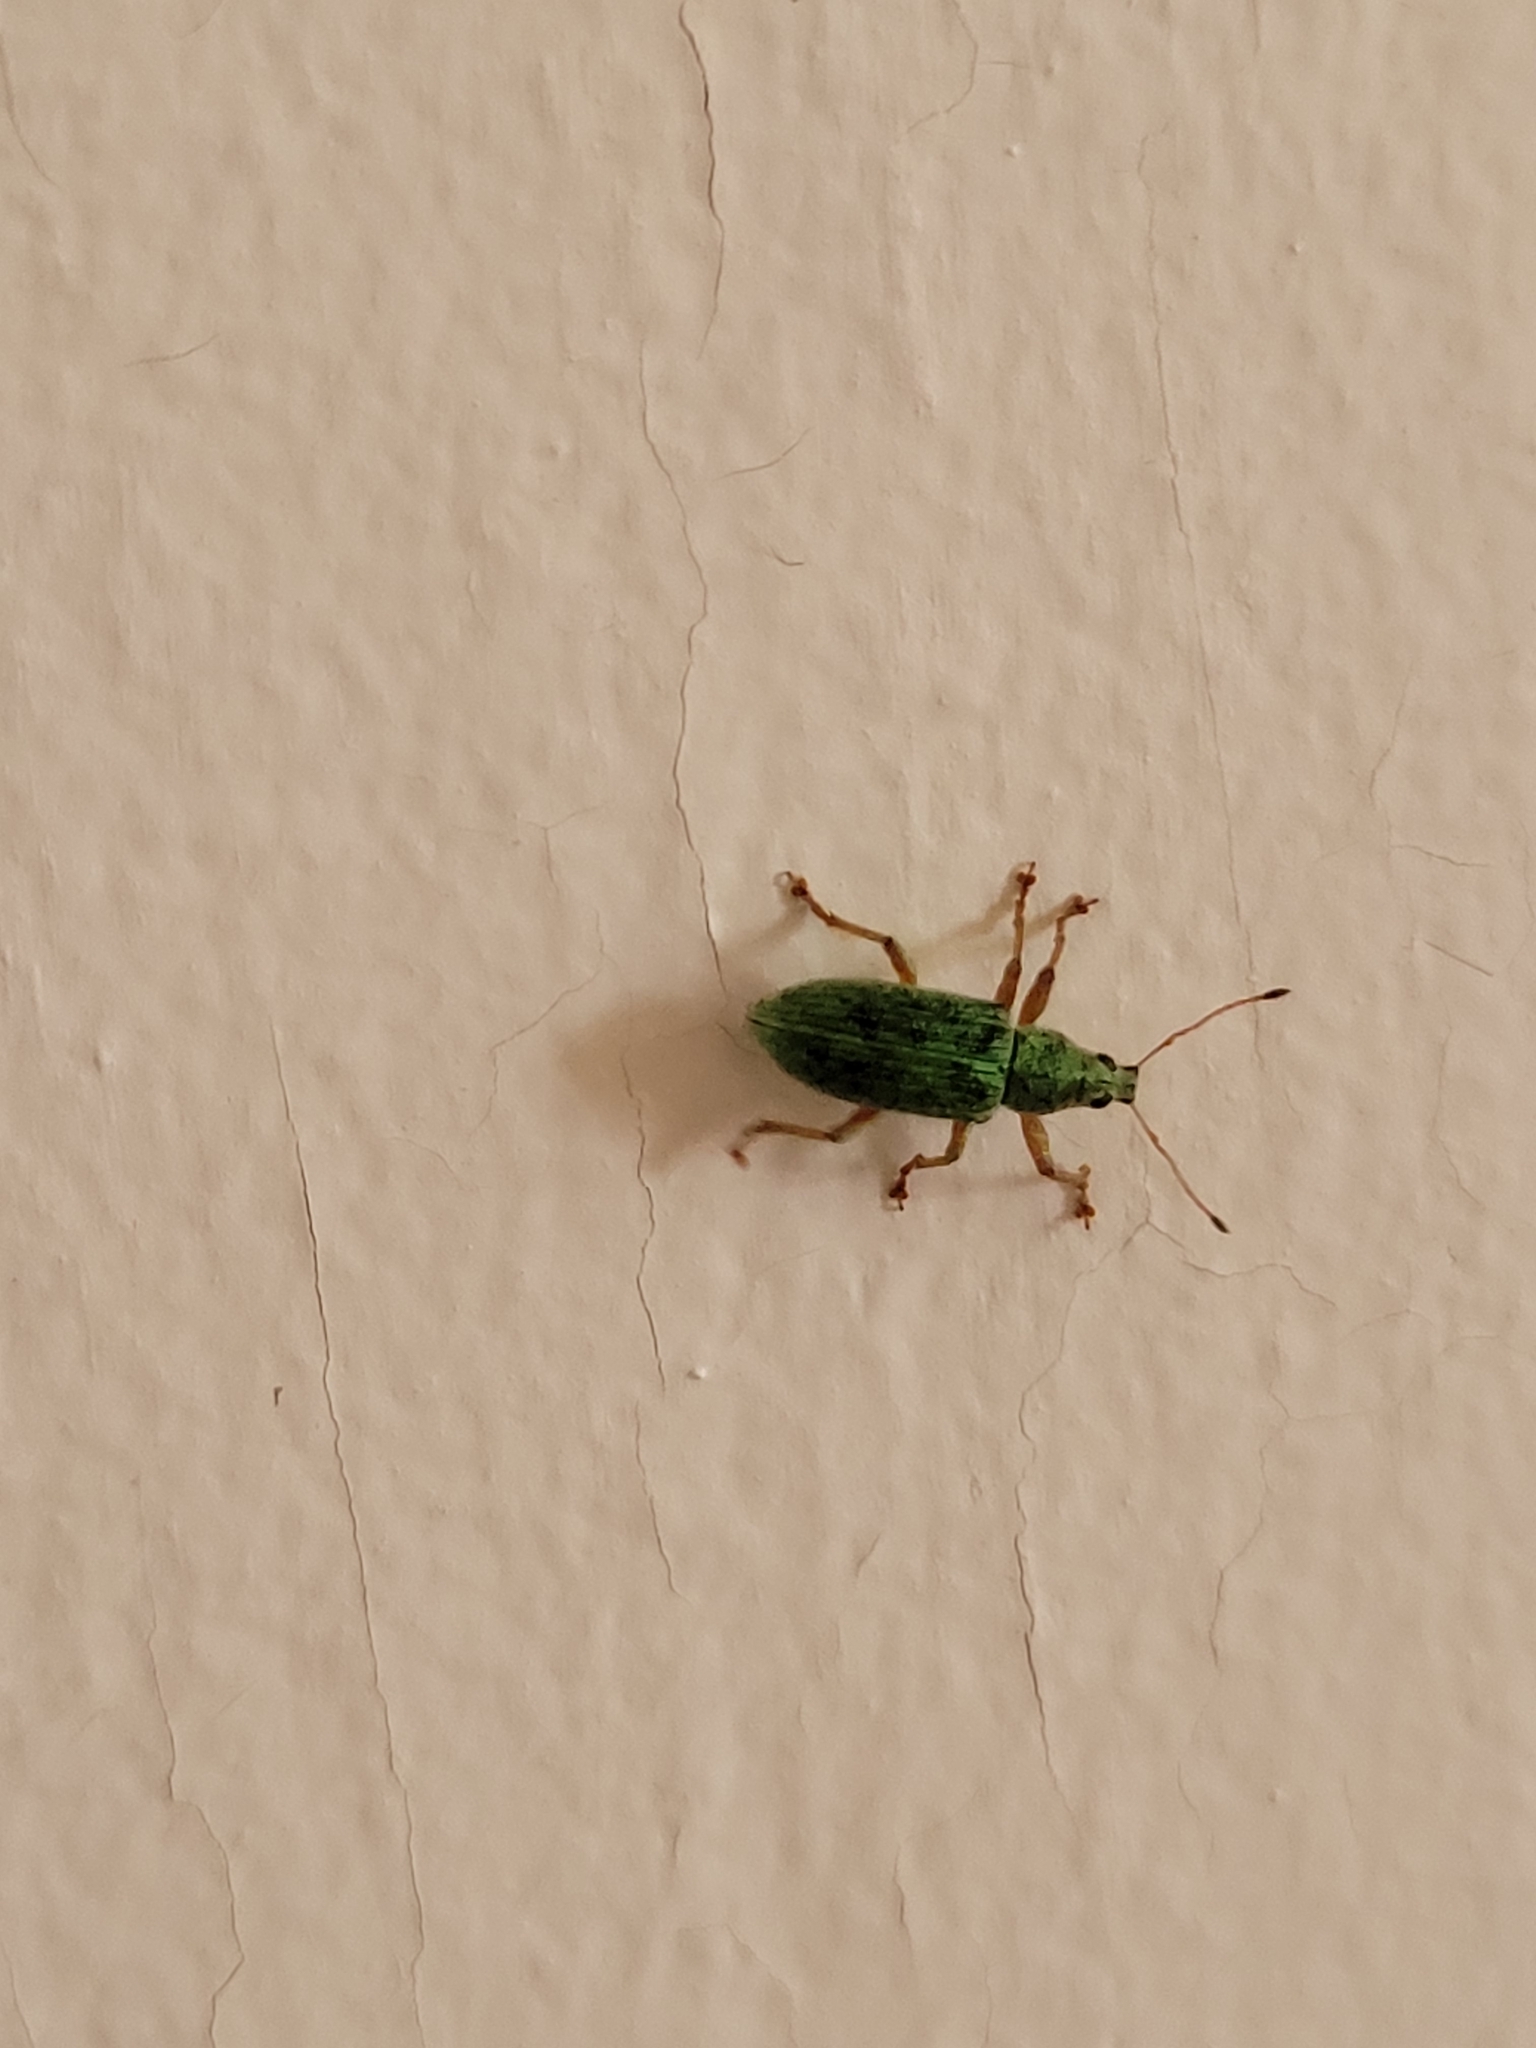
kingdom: Animalia
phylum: Arthropoda
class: Insecta
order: Coleoptera
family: Curculionidae
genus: Polydrusus
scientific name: Polydrusus formosus
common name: Weevil
